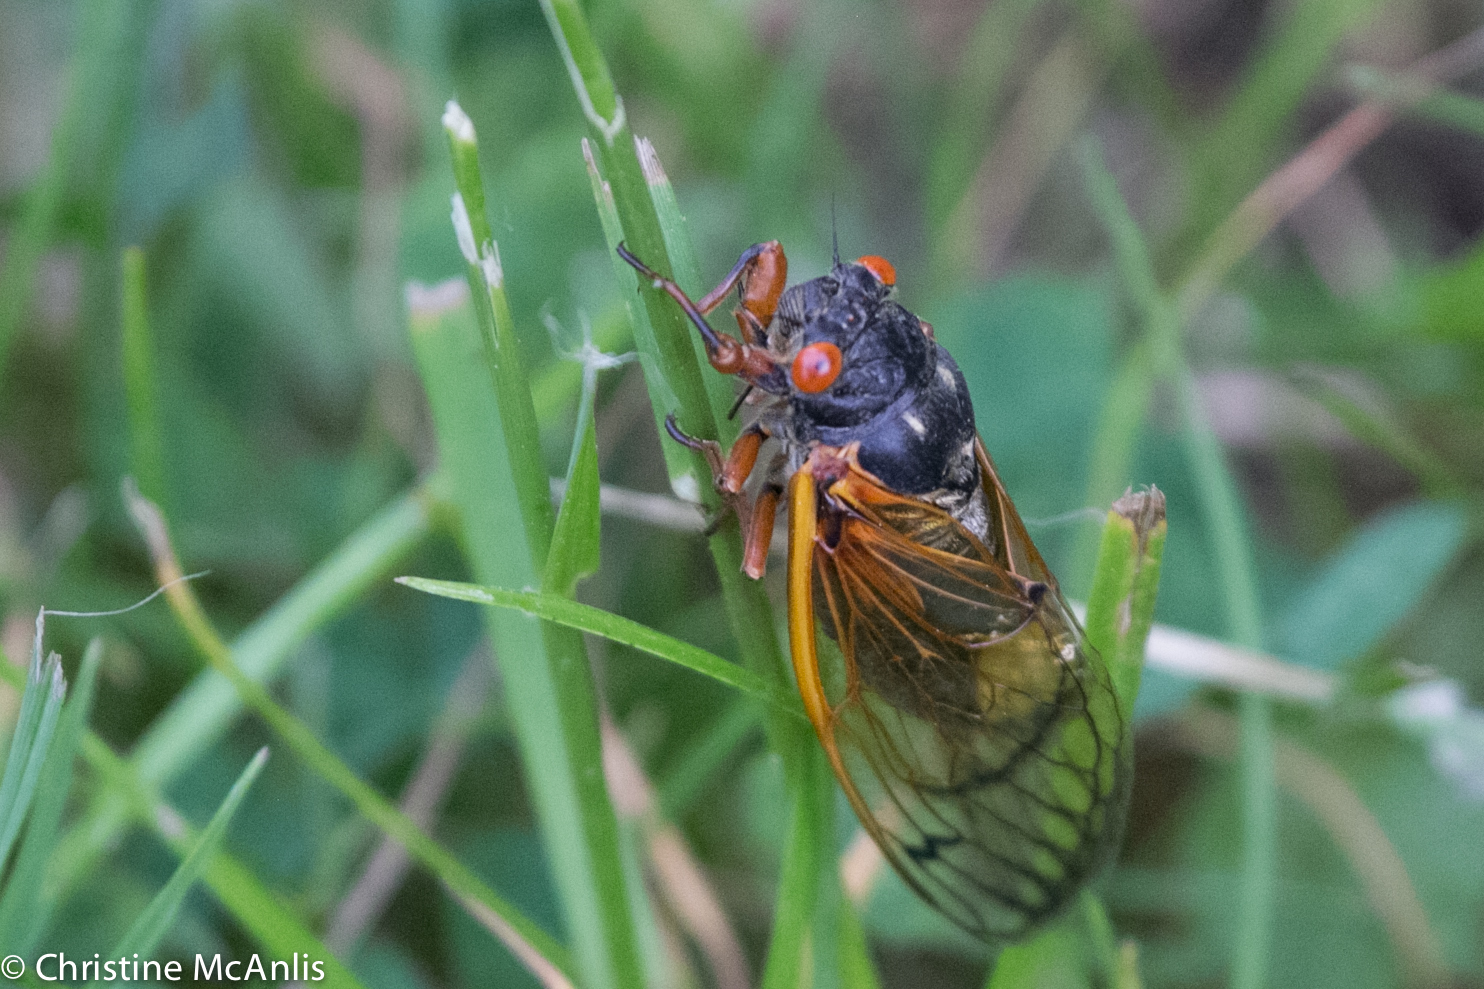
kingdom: Animalia
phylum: Arthropoda
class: Insecta
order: Hemiptera
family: Cicadidae
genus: Magicicada
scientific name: Magicicada
